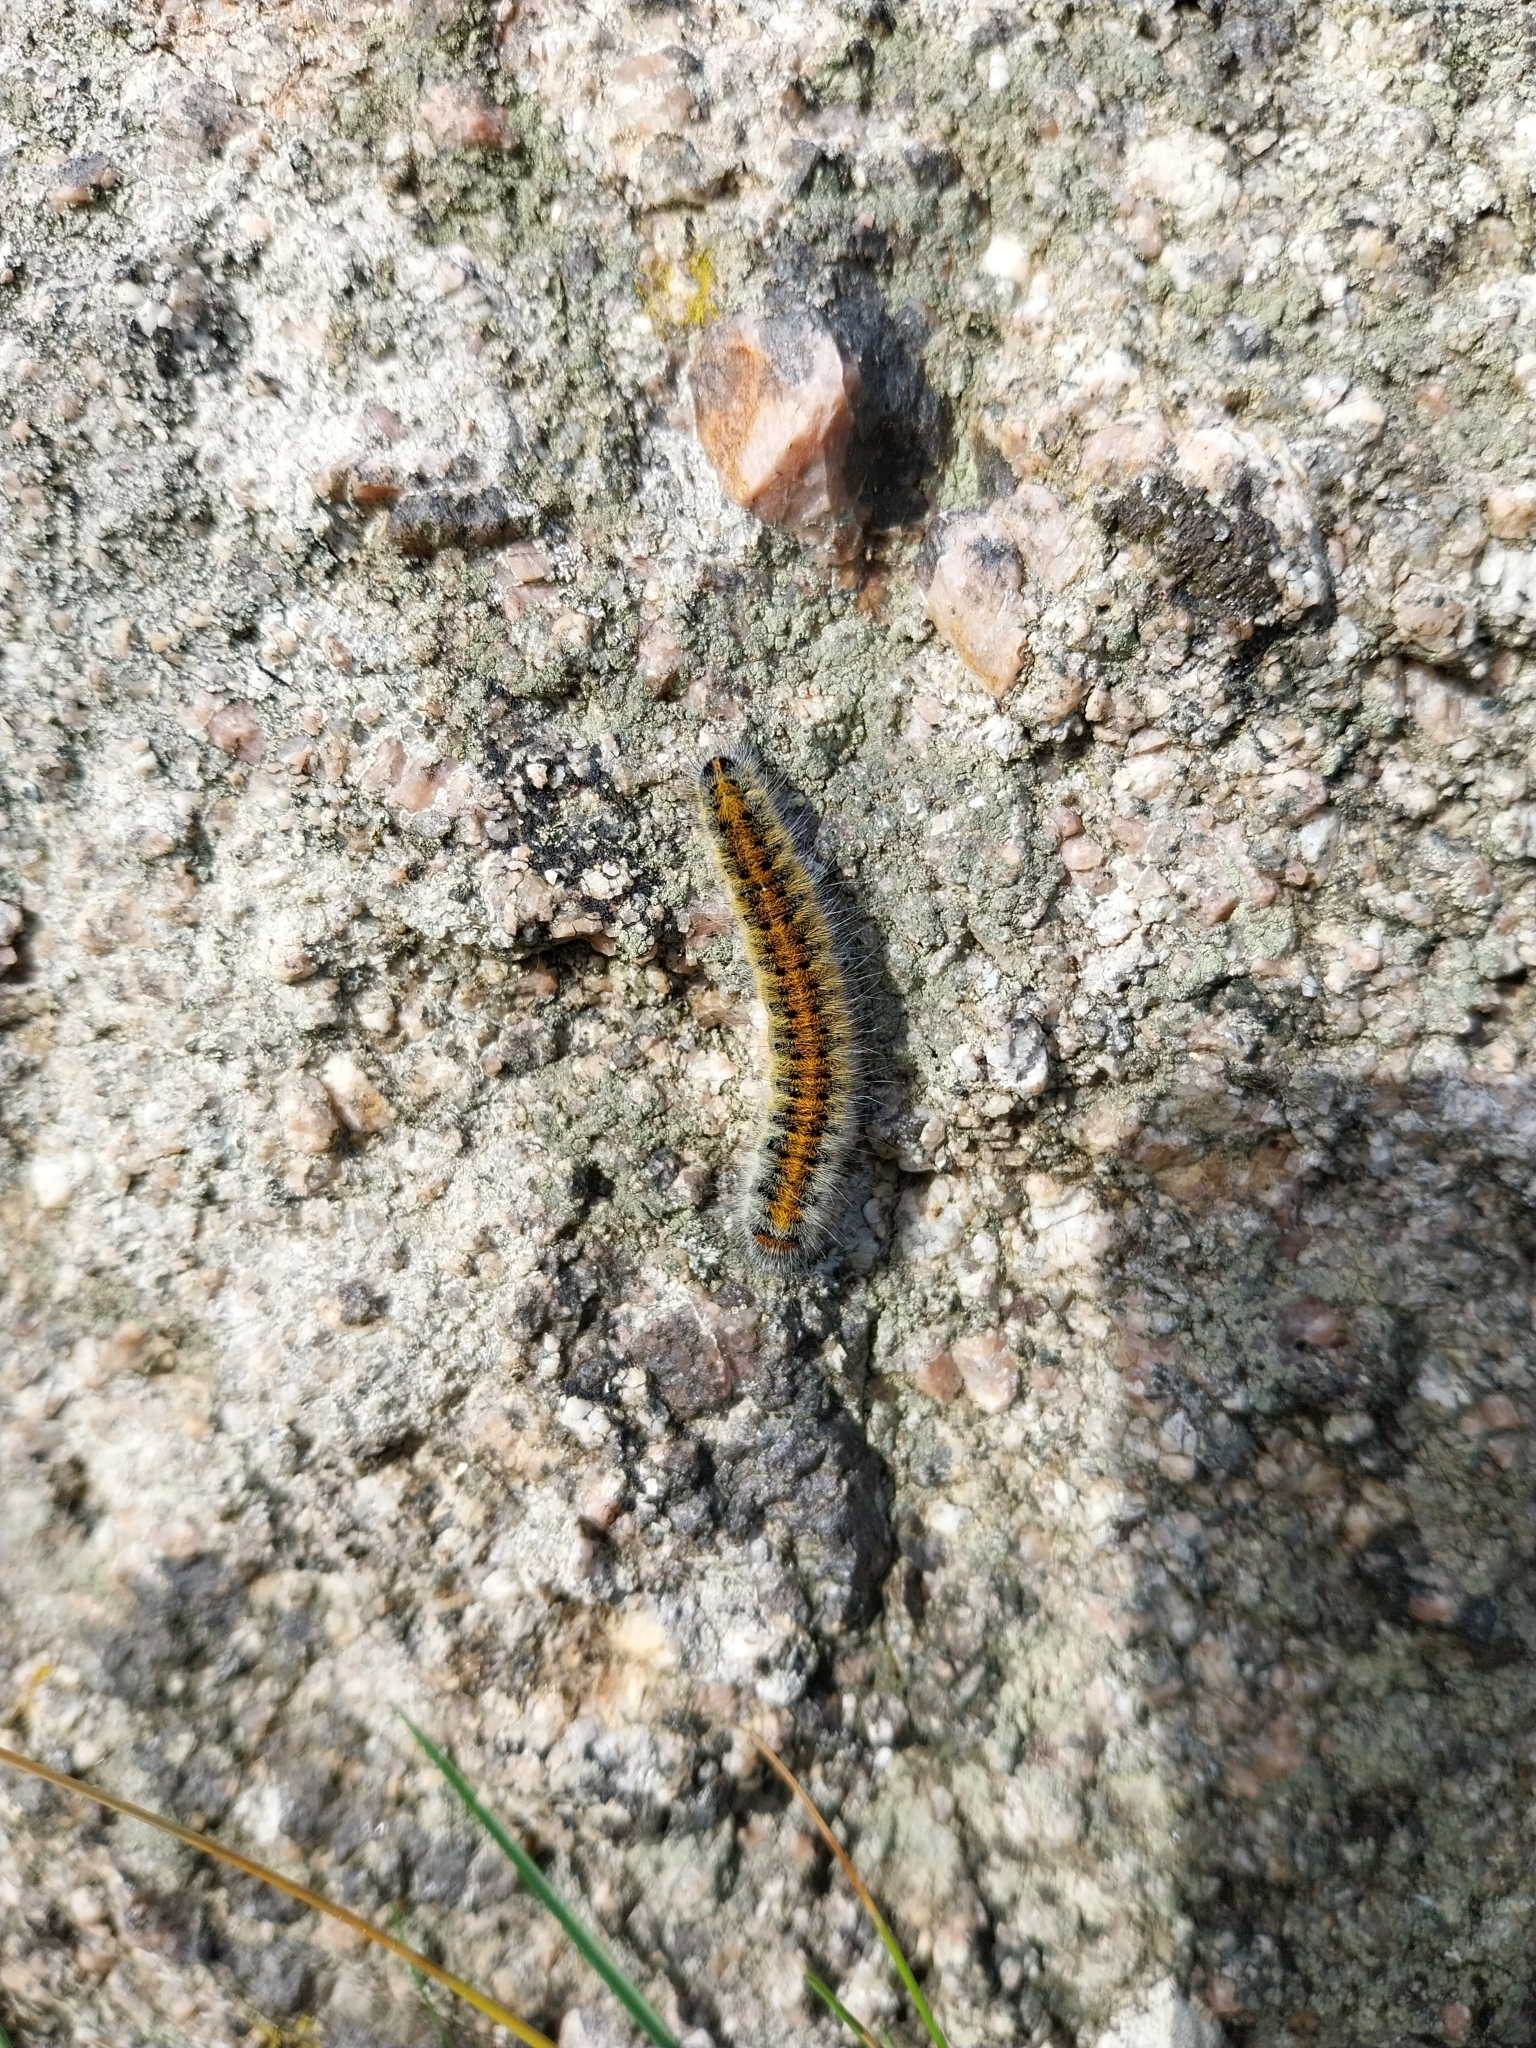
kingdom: Animalia
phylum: Arthropoda
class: Insecta
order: Lepidoptera
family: Lasiocampidae
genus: Lasiocampa
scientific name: Lasiocampa trifolii
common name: Grass eggar
